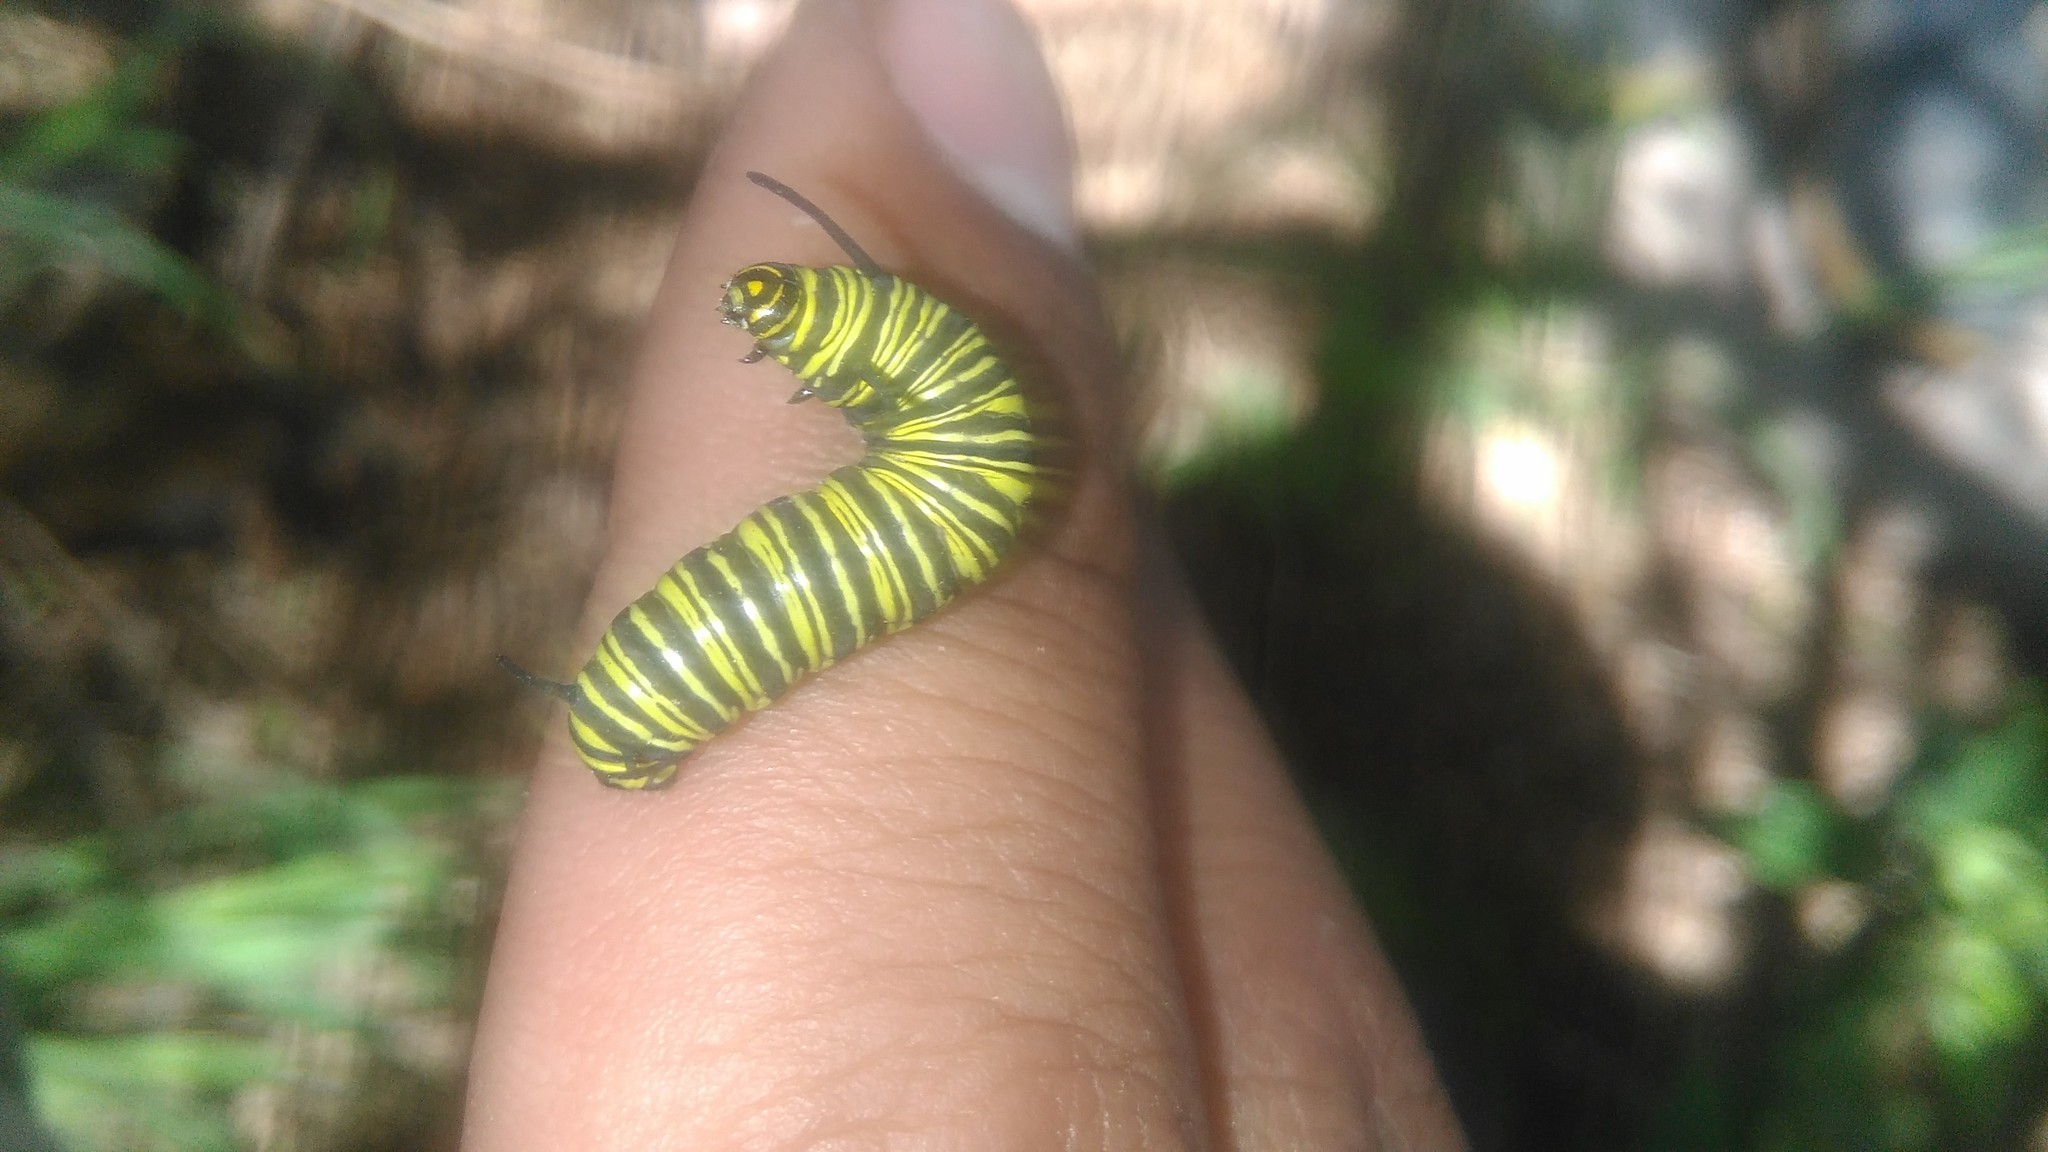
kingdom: Animalia
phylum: Arthropoda
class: Insecta
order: Lepidoptera
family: Nymphalidae
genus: Danaus
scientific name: Danaus erippus
